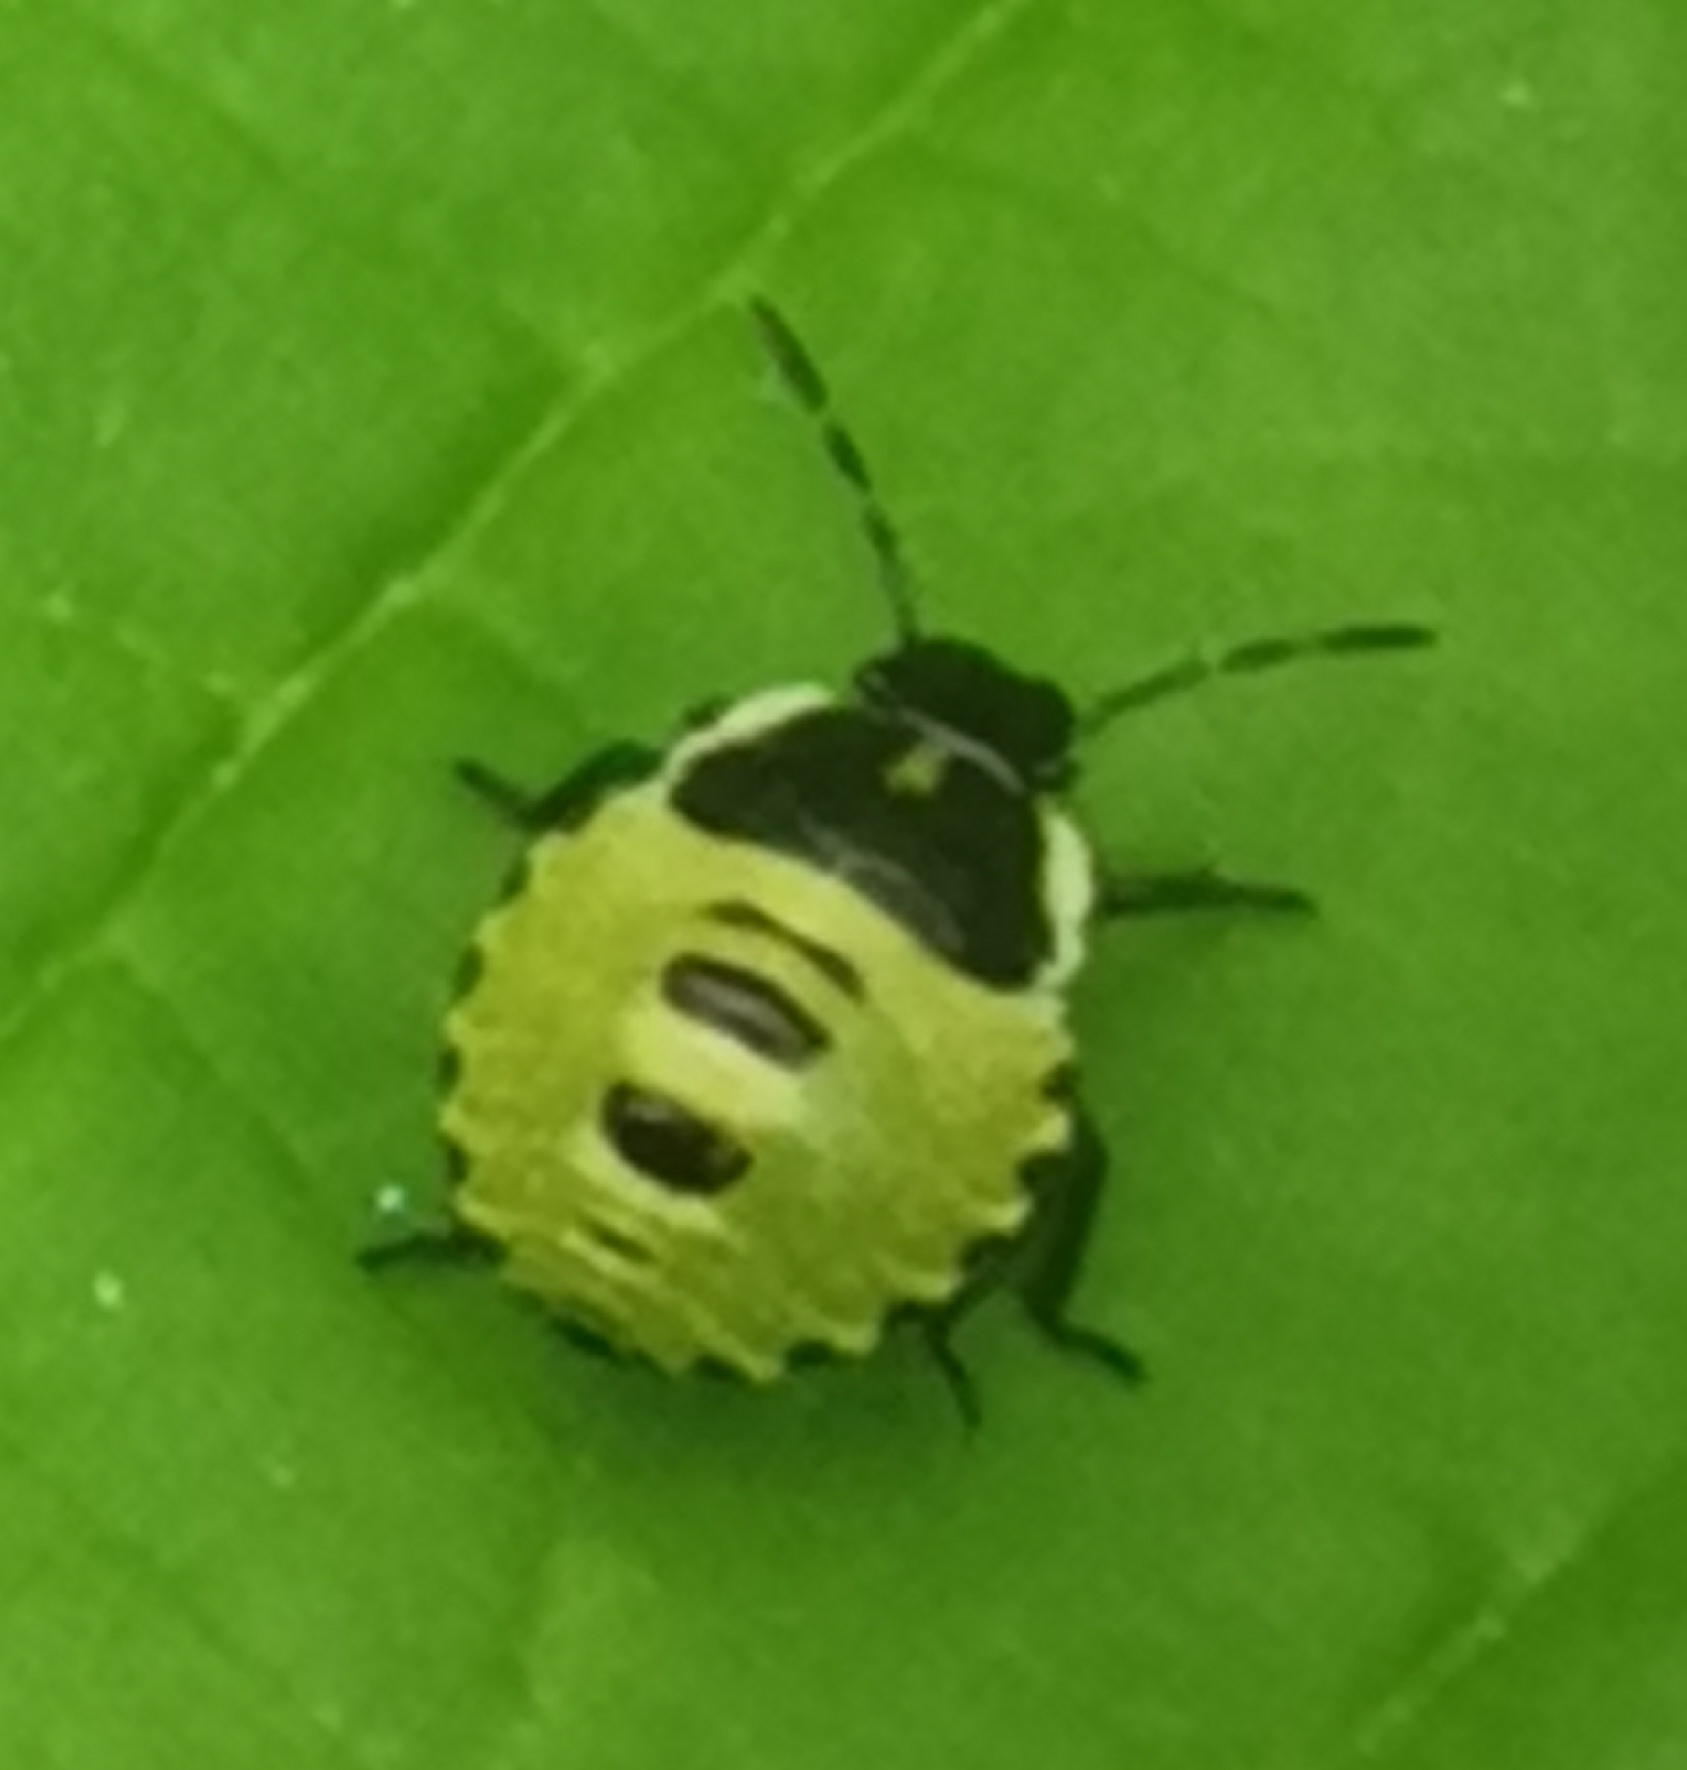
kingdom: Animalia
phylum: Arthropoda
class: Insecta
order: Hemiptera
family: Pentatomidae
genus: Palomena
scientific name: Palomena prasina
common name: Green shieldbug
